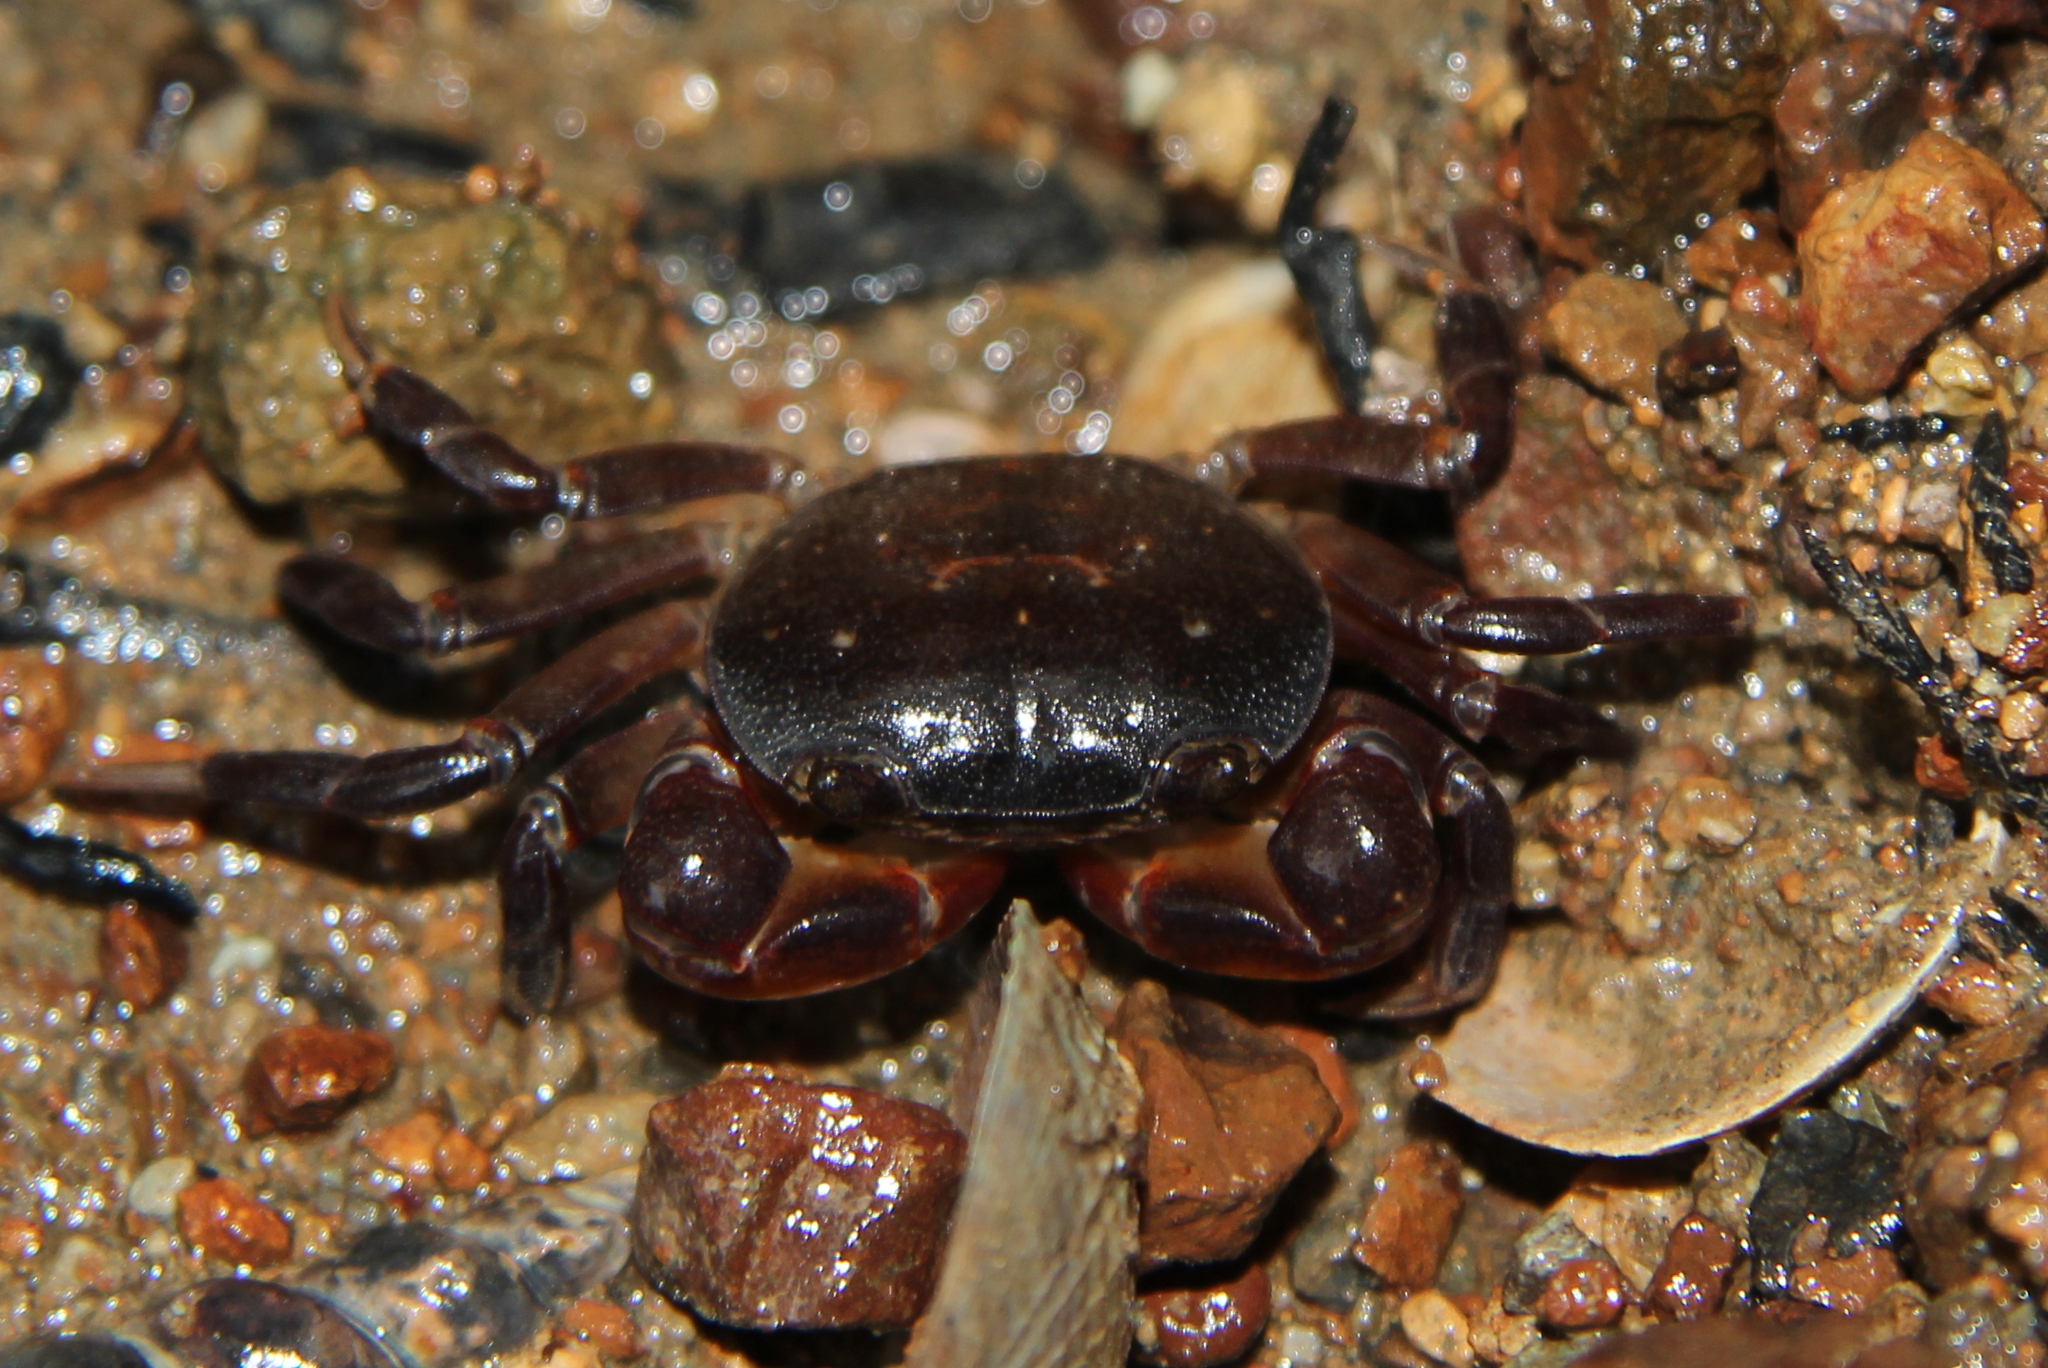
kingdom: Animalia
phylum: Arthropoda
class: Malacostraca
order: Decapoda
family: Varunidae
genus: Cyclograpsus
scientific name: Cyclograpsus lavauxi
